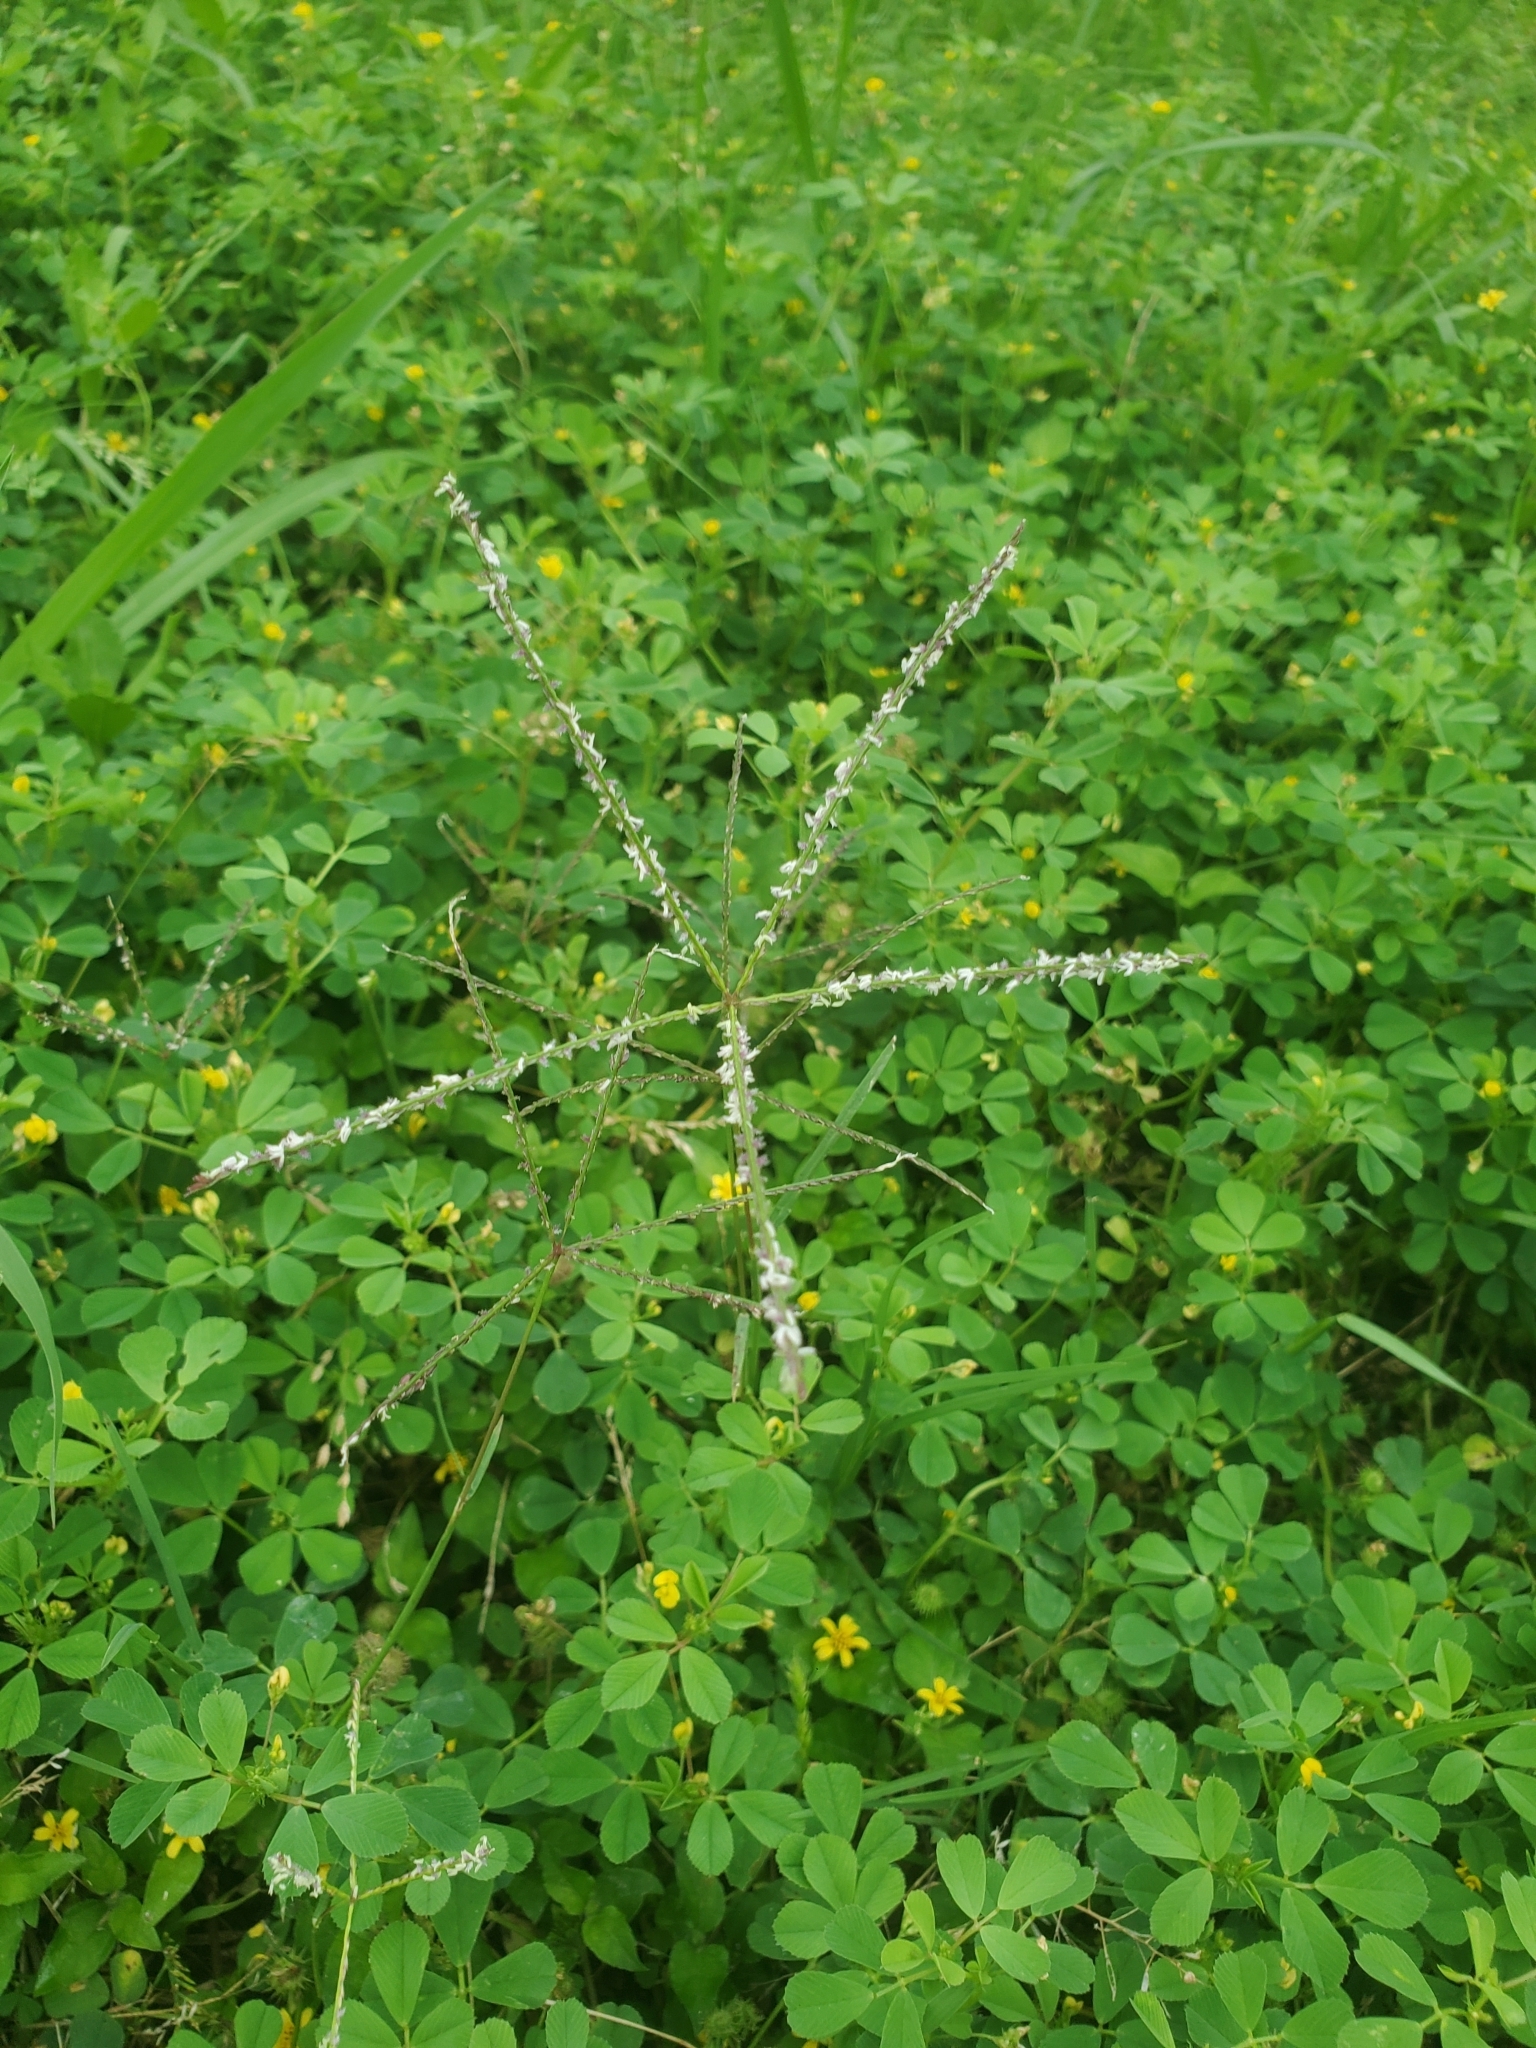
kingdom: Plantae
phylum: Tracheophyta
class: Liliopsida
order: Poales
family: Poaceae
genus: Cynodon
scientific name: Cynodon dactylon
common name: Bermuda grass
